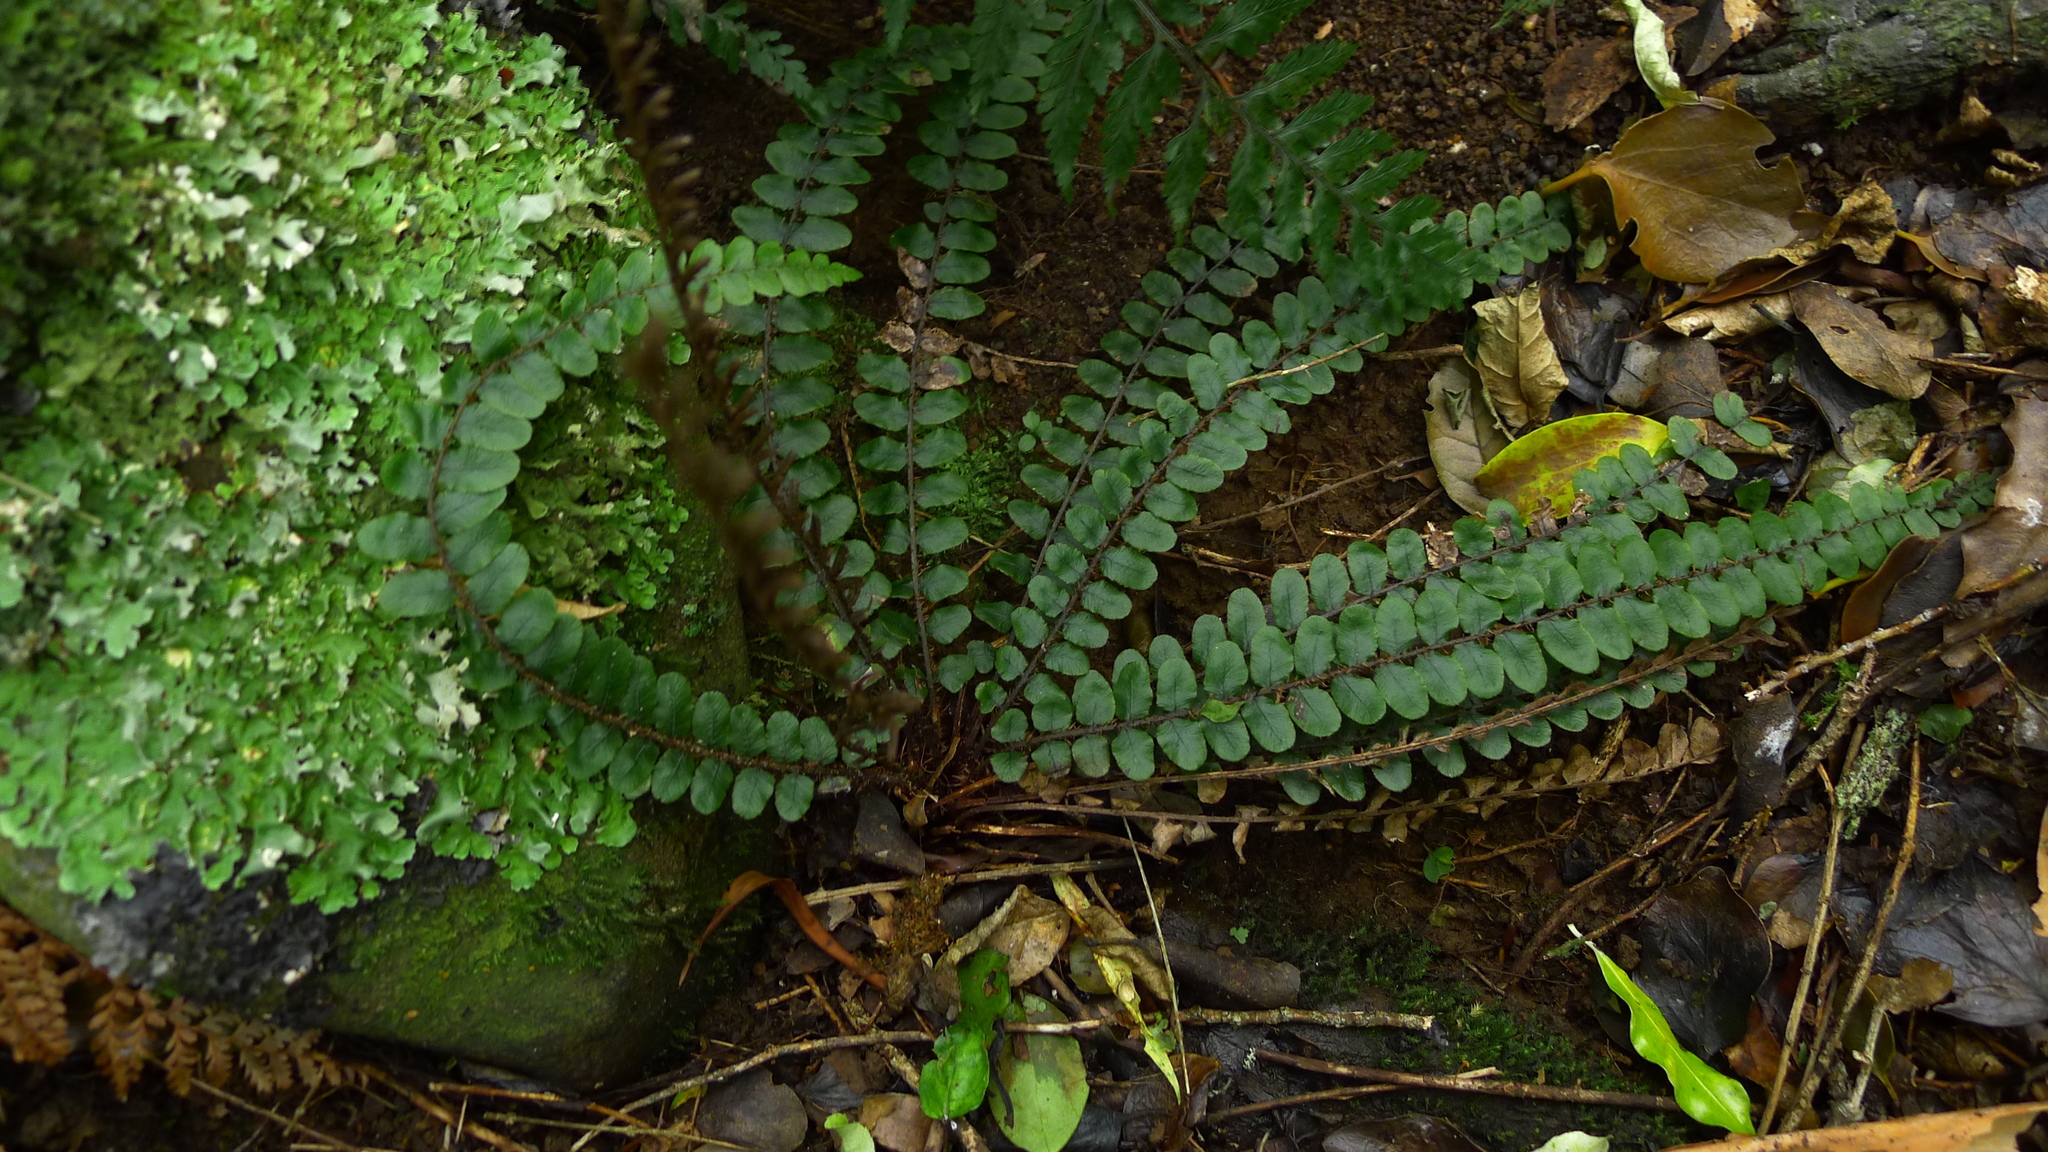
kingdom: Plantae
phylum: Tracheophyta
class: Polypodiopsida
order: Polypodiales
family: Blechnaceae
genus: Cranfillia
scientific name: Cranfillia fluviatilis
